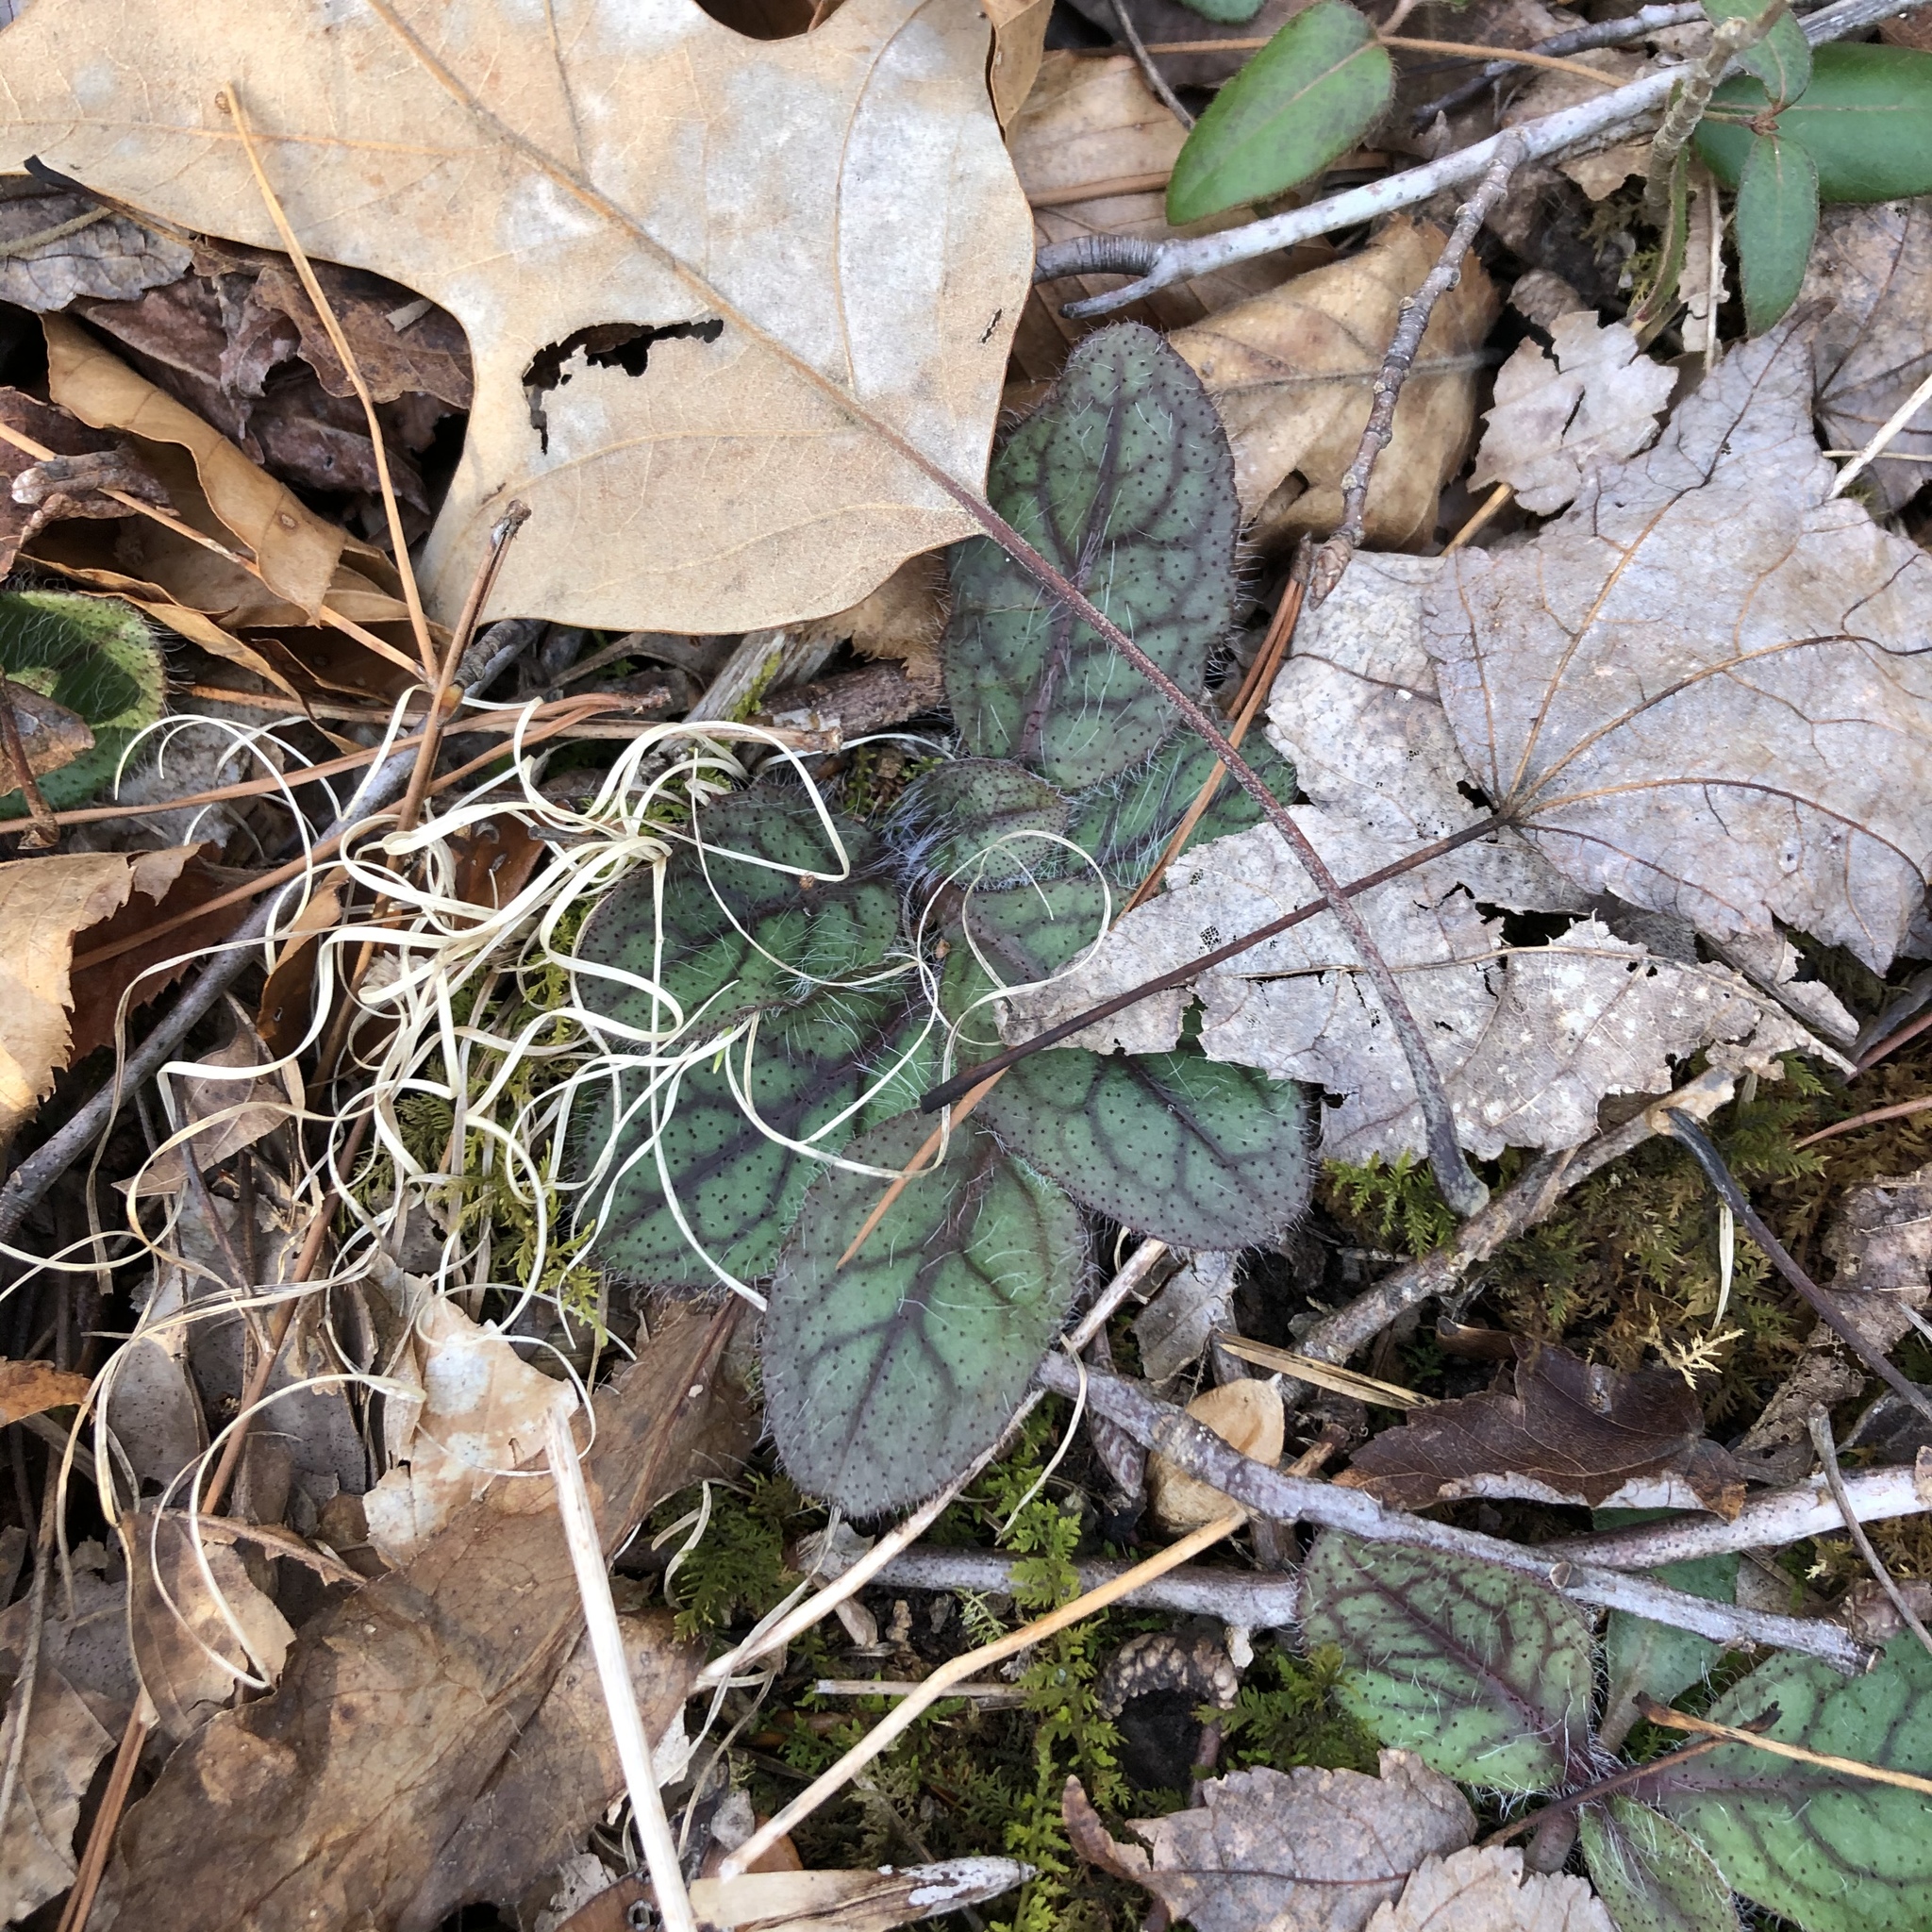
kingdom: Plantae
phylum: Tracheophyta
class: Magnoliopsida
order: Asterales
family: Asteraceae
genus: Hieracium
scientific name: Hieracium venosum
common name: Rattlesnake hawkweed
